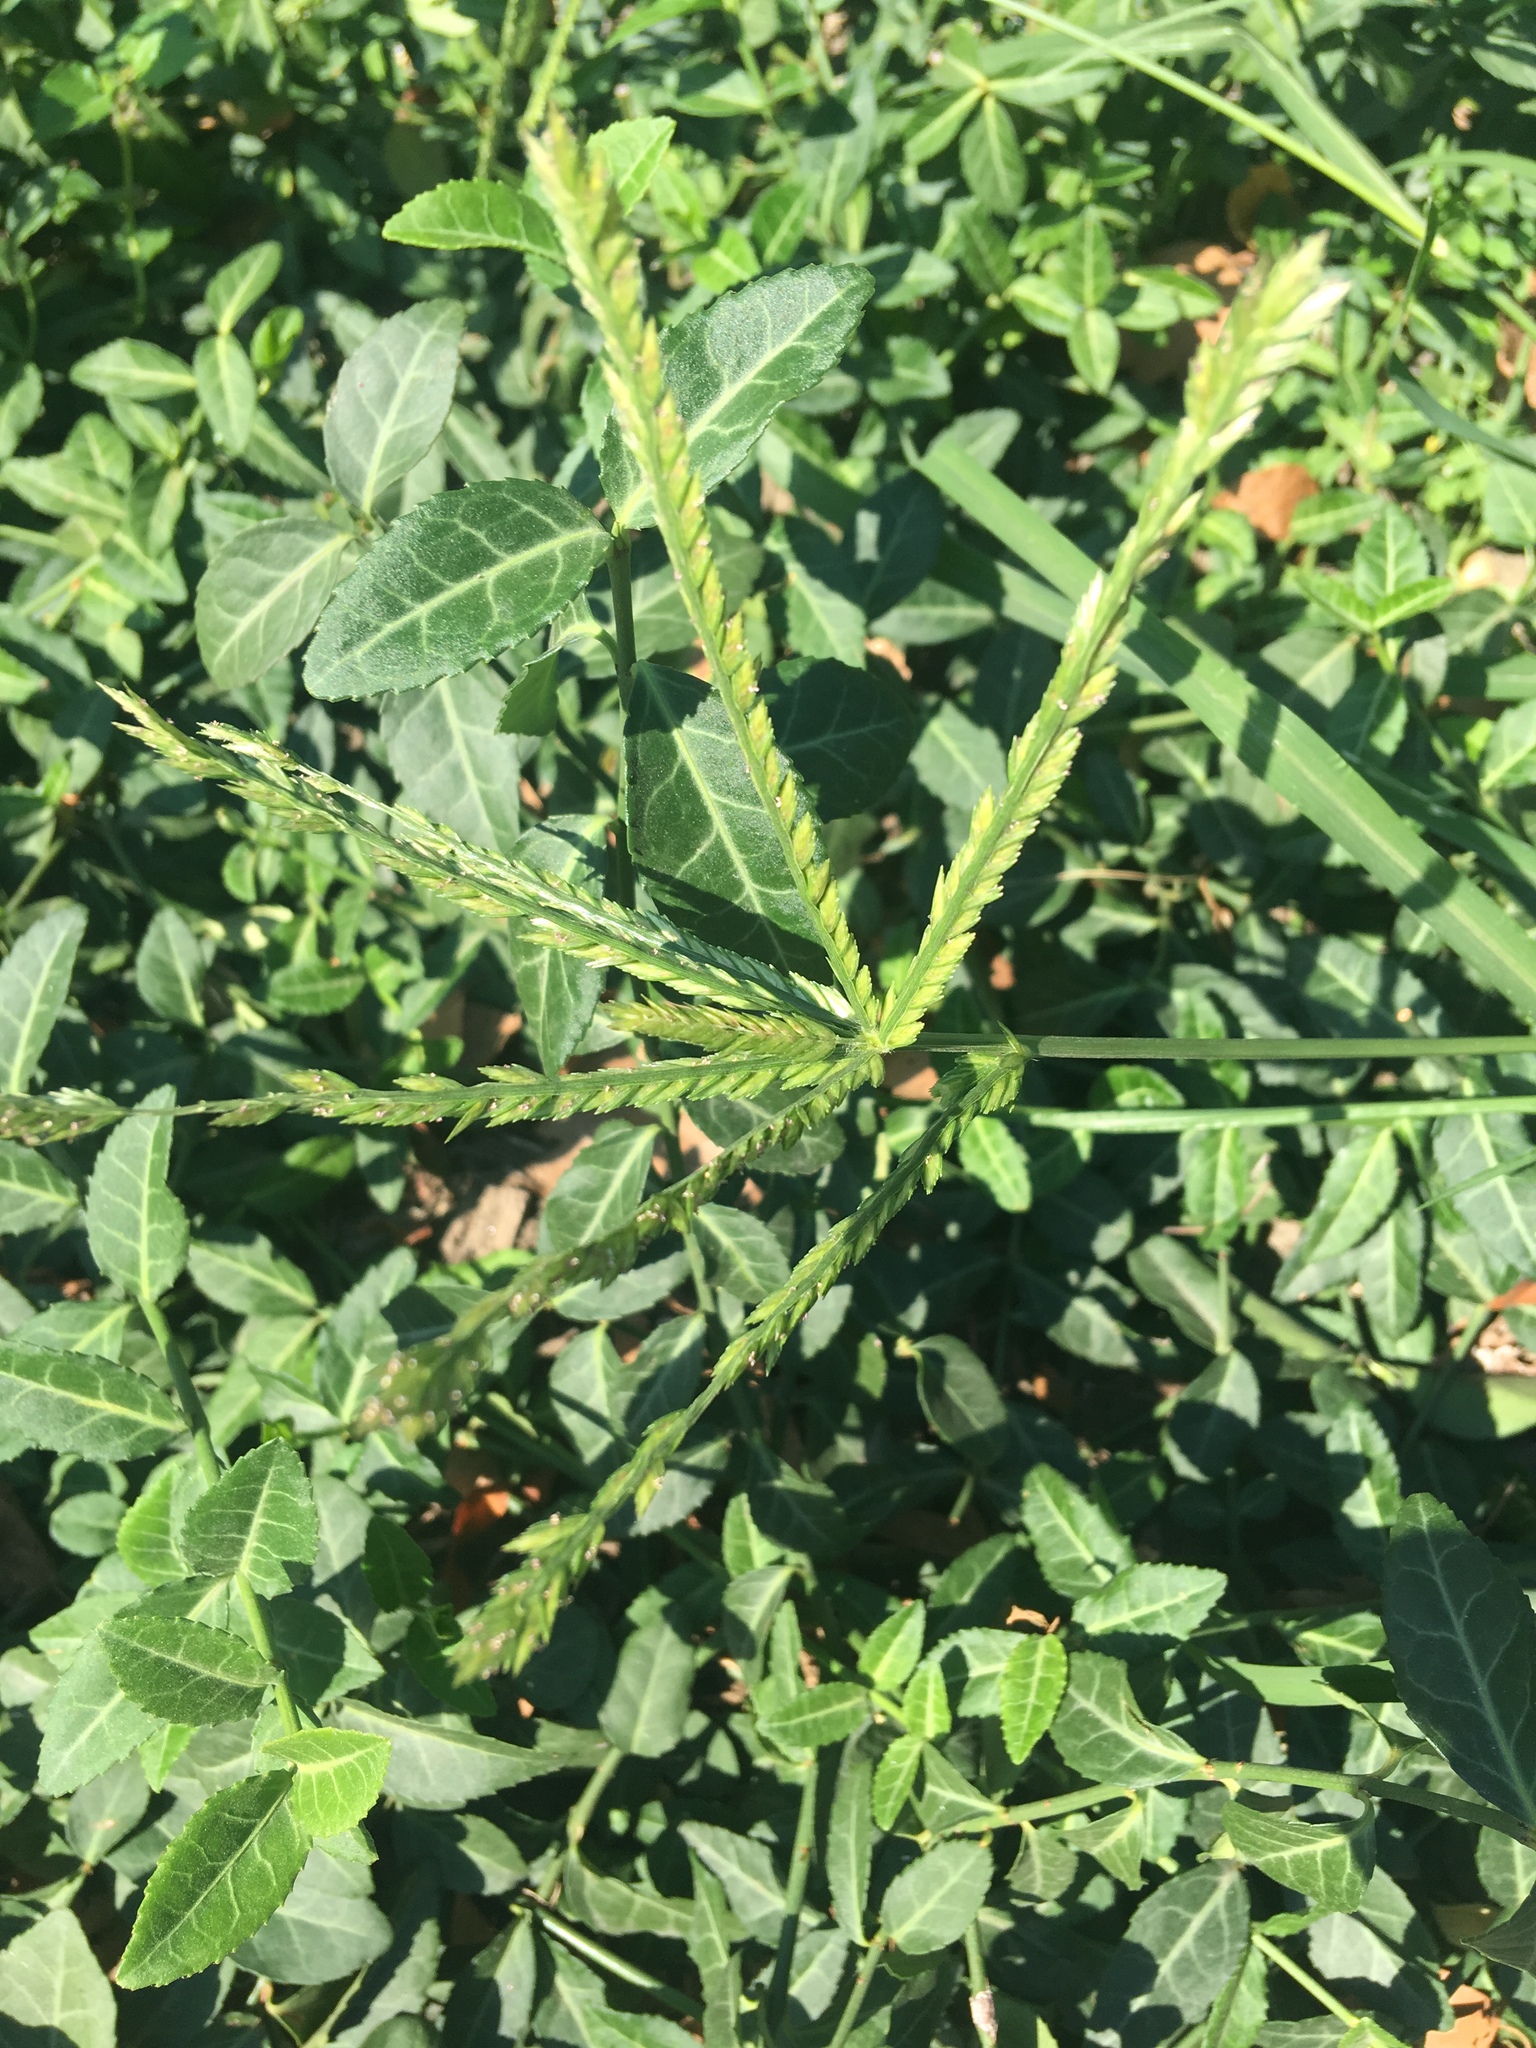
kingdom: Plantae
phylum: Tracheophyta
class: Liliopsida
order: Poales
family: Poaceae
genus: Eleusine
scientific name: Eleusine indica
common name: Yard-grass
